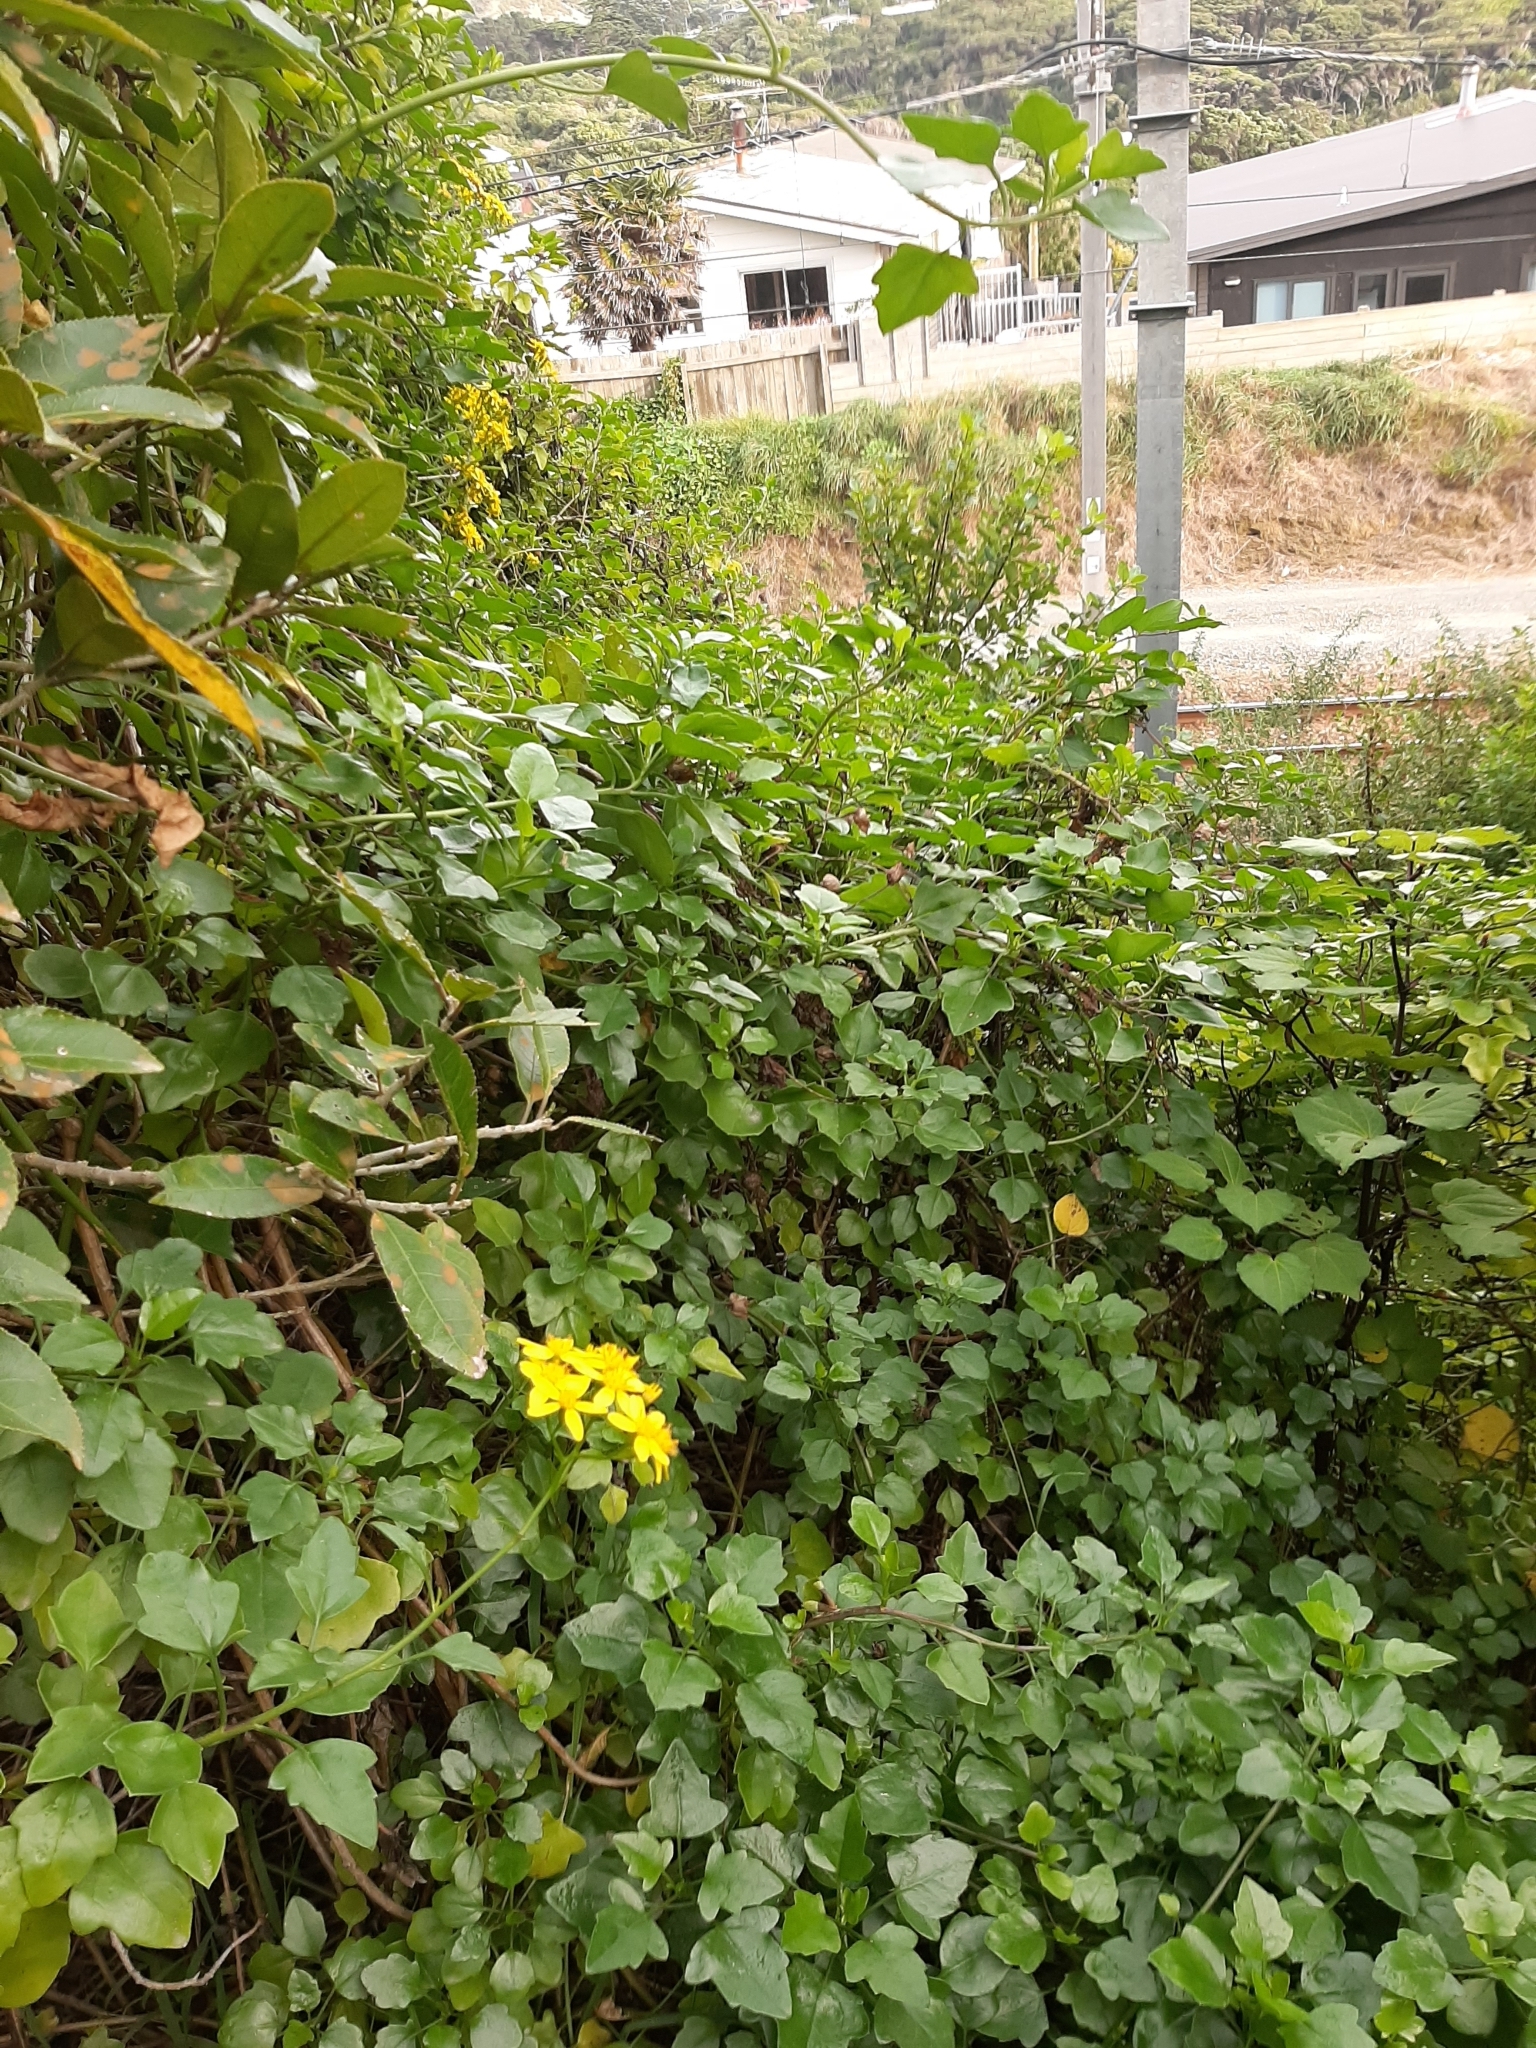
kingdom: Plantae
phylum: Tracheophyta
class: Magnoliopsida
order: Asterales
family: Asteraceae
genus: Senecio
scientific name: Senecio angulatus
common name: Climbing groundsel
